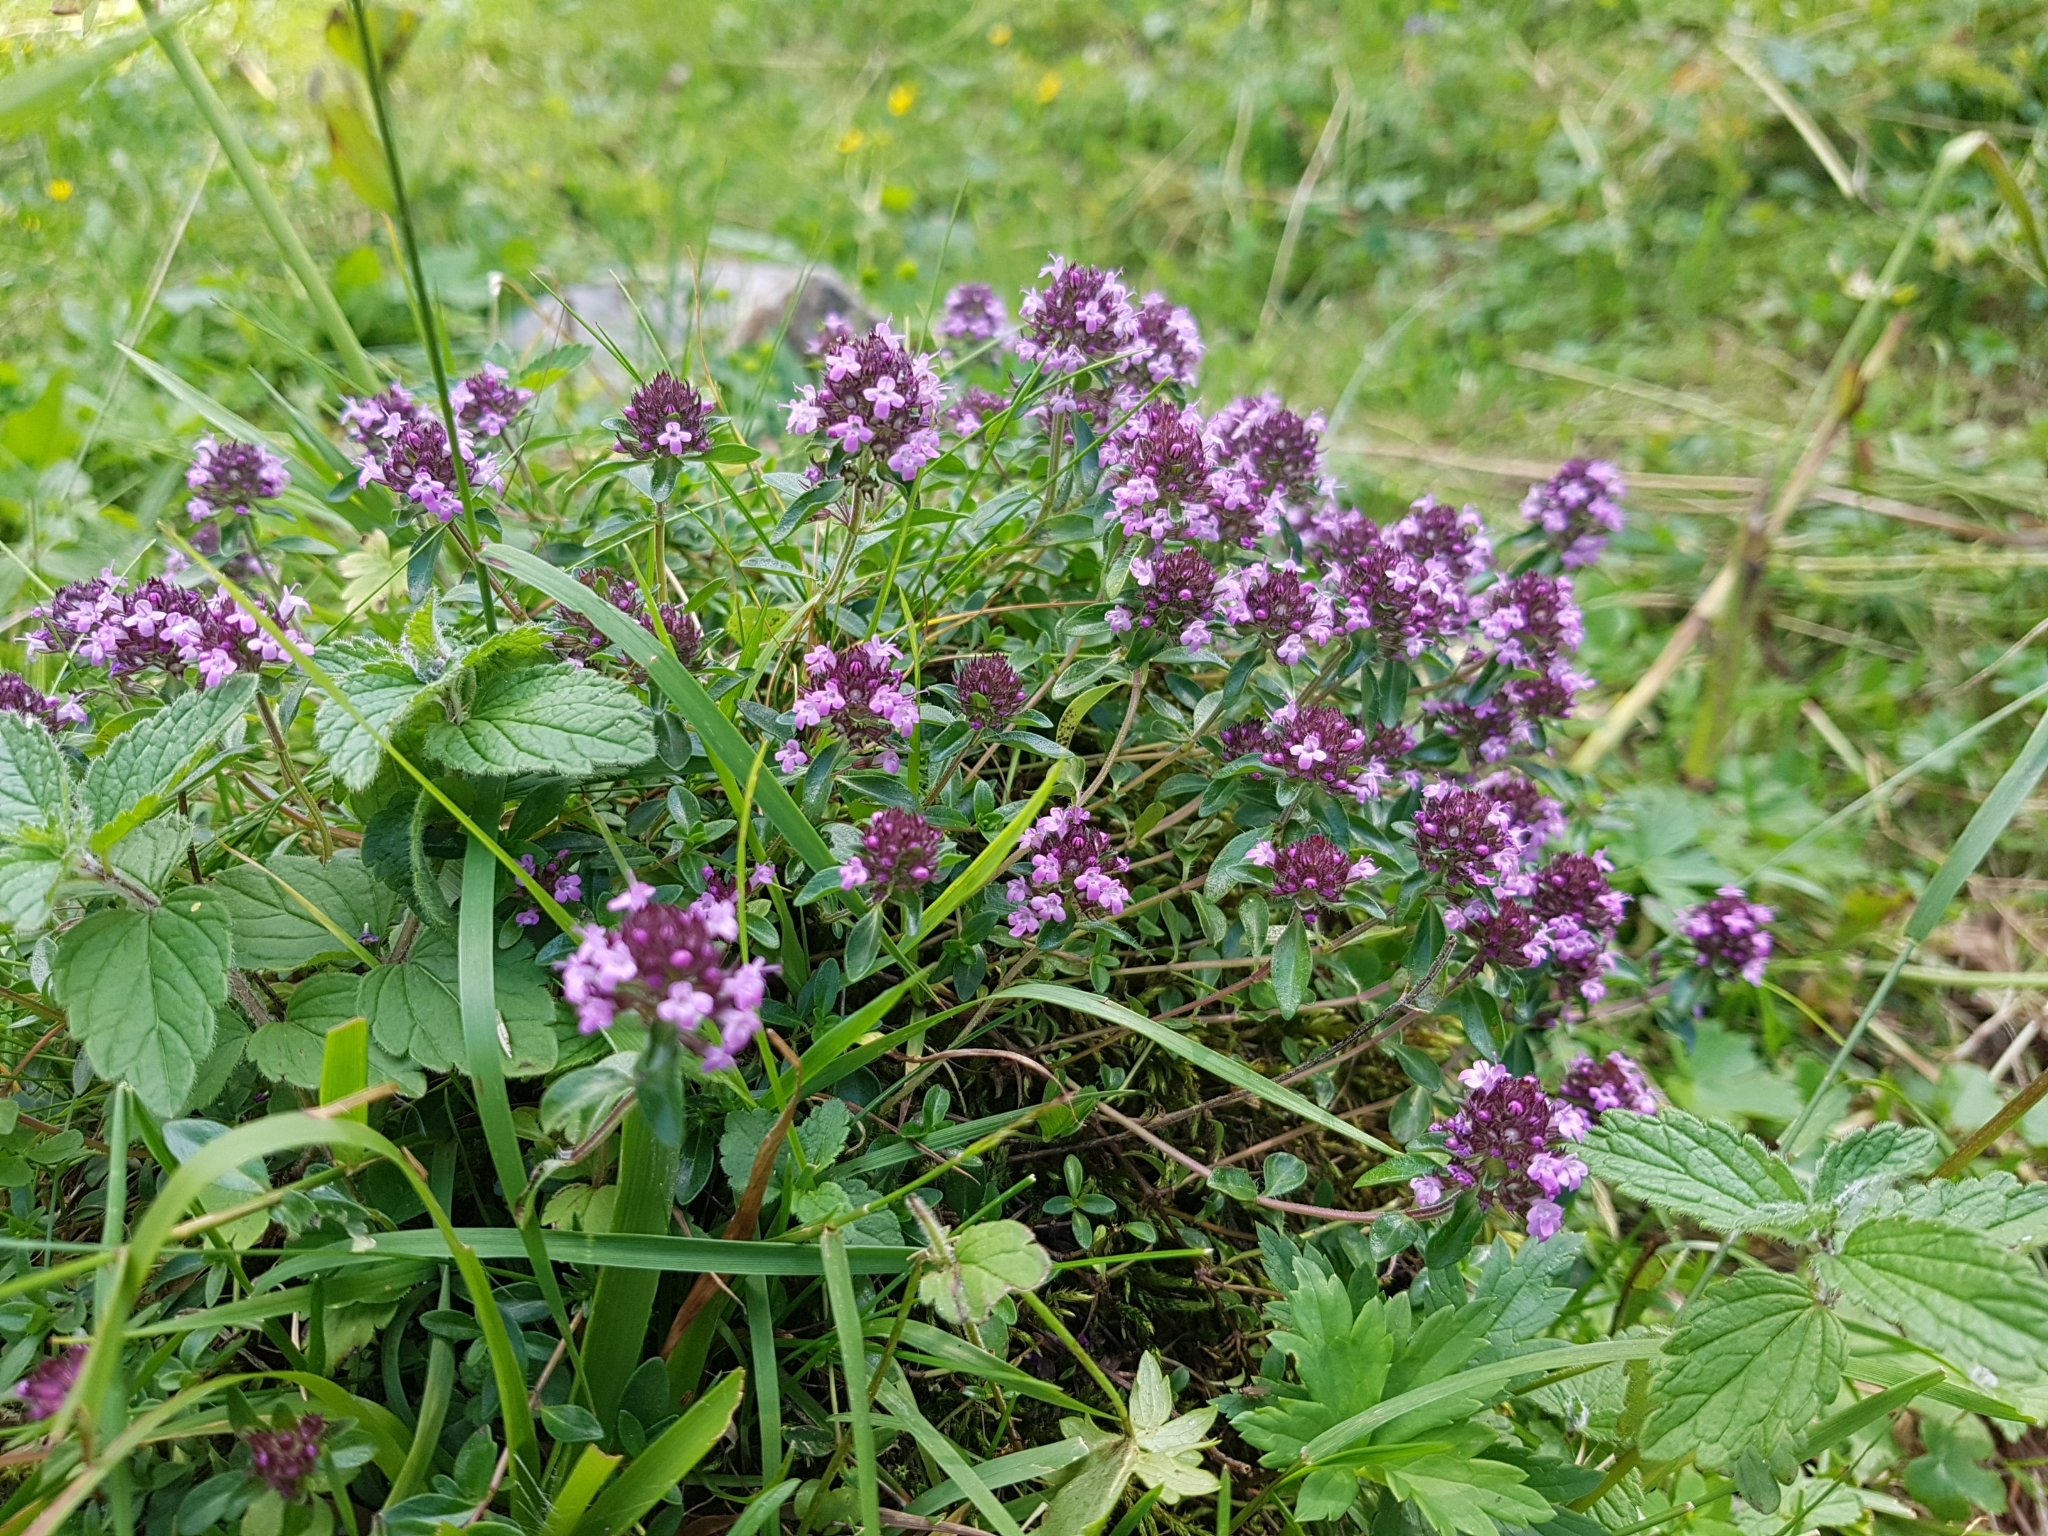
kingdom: Plantae
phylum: Tracheophyta
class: Magnoliopsida
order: Lamiales
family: Lamiaceae
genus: Thymus
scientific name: Thymus pulegioides
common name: Large thyme
